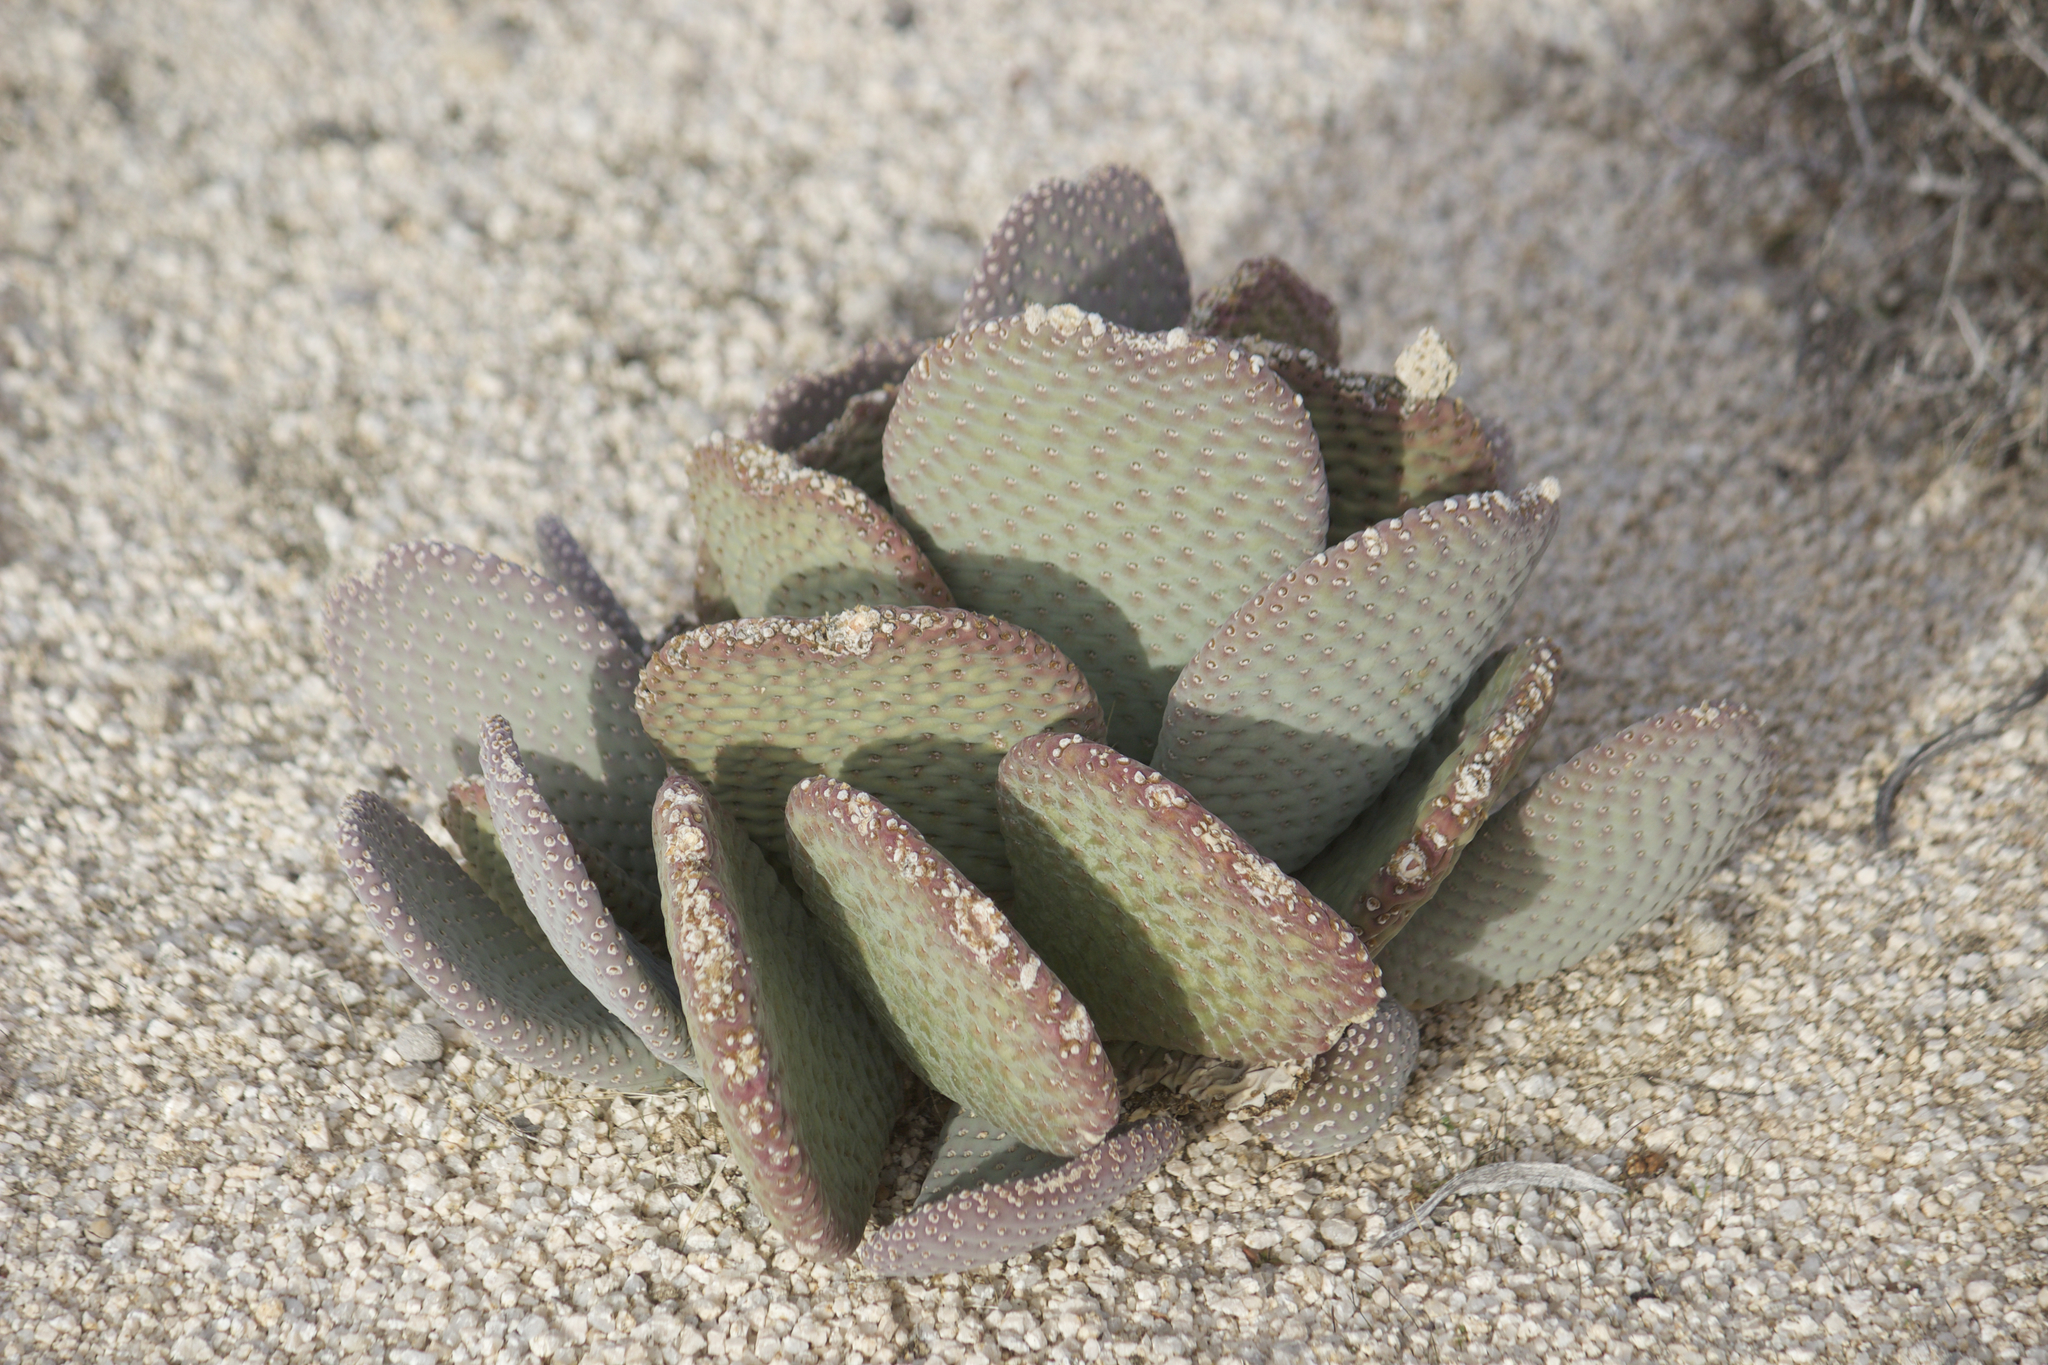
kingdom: Plantae
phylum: Tracheophyta
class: Magnoliopsida
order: Caryophyllales
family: Cactaceae
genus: Opuntia
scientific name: Opuntia basilaris
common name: Beavertail prickly-pear
